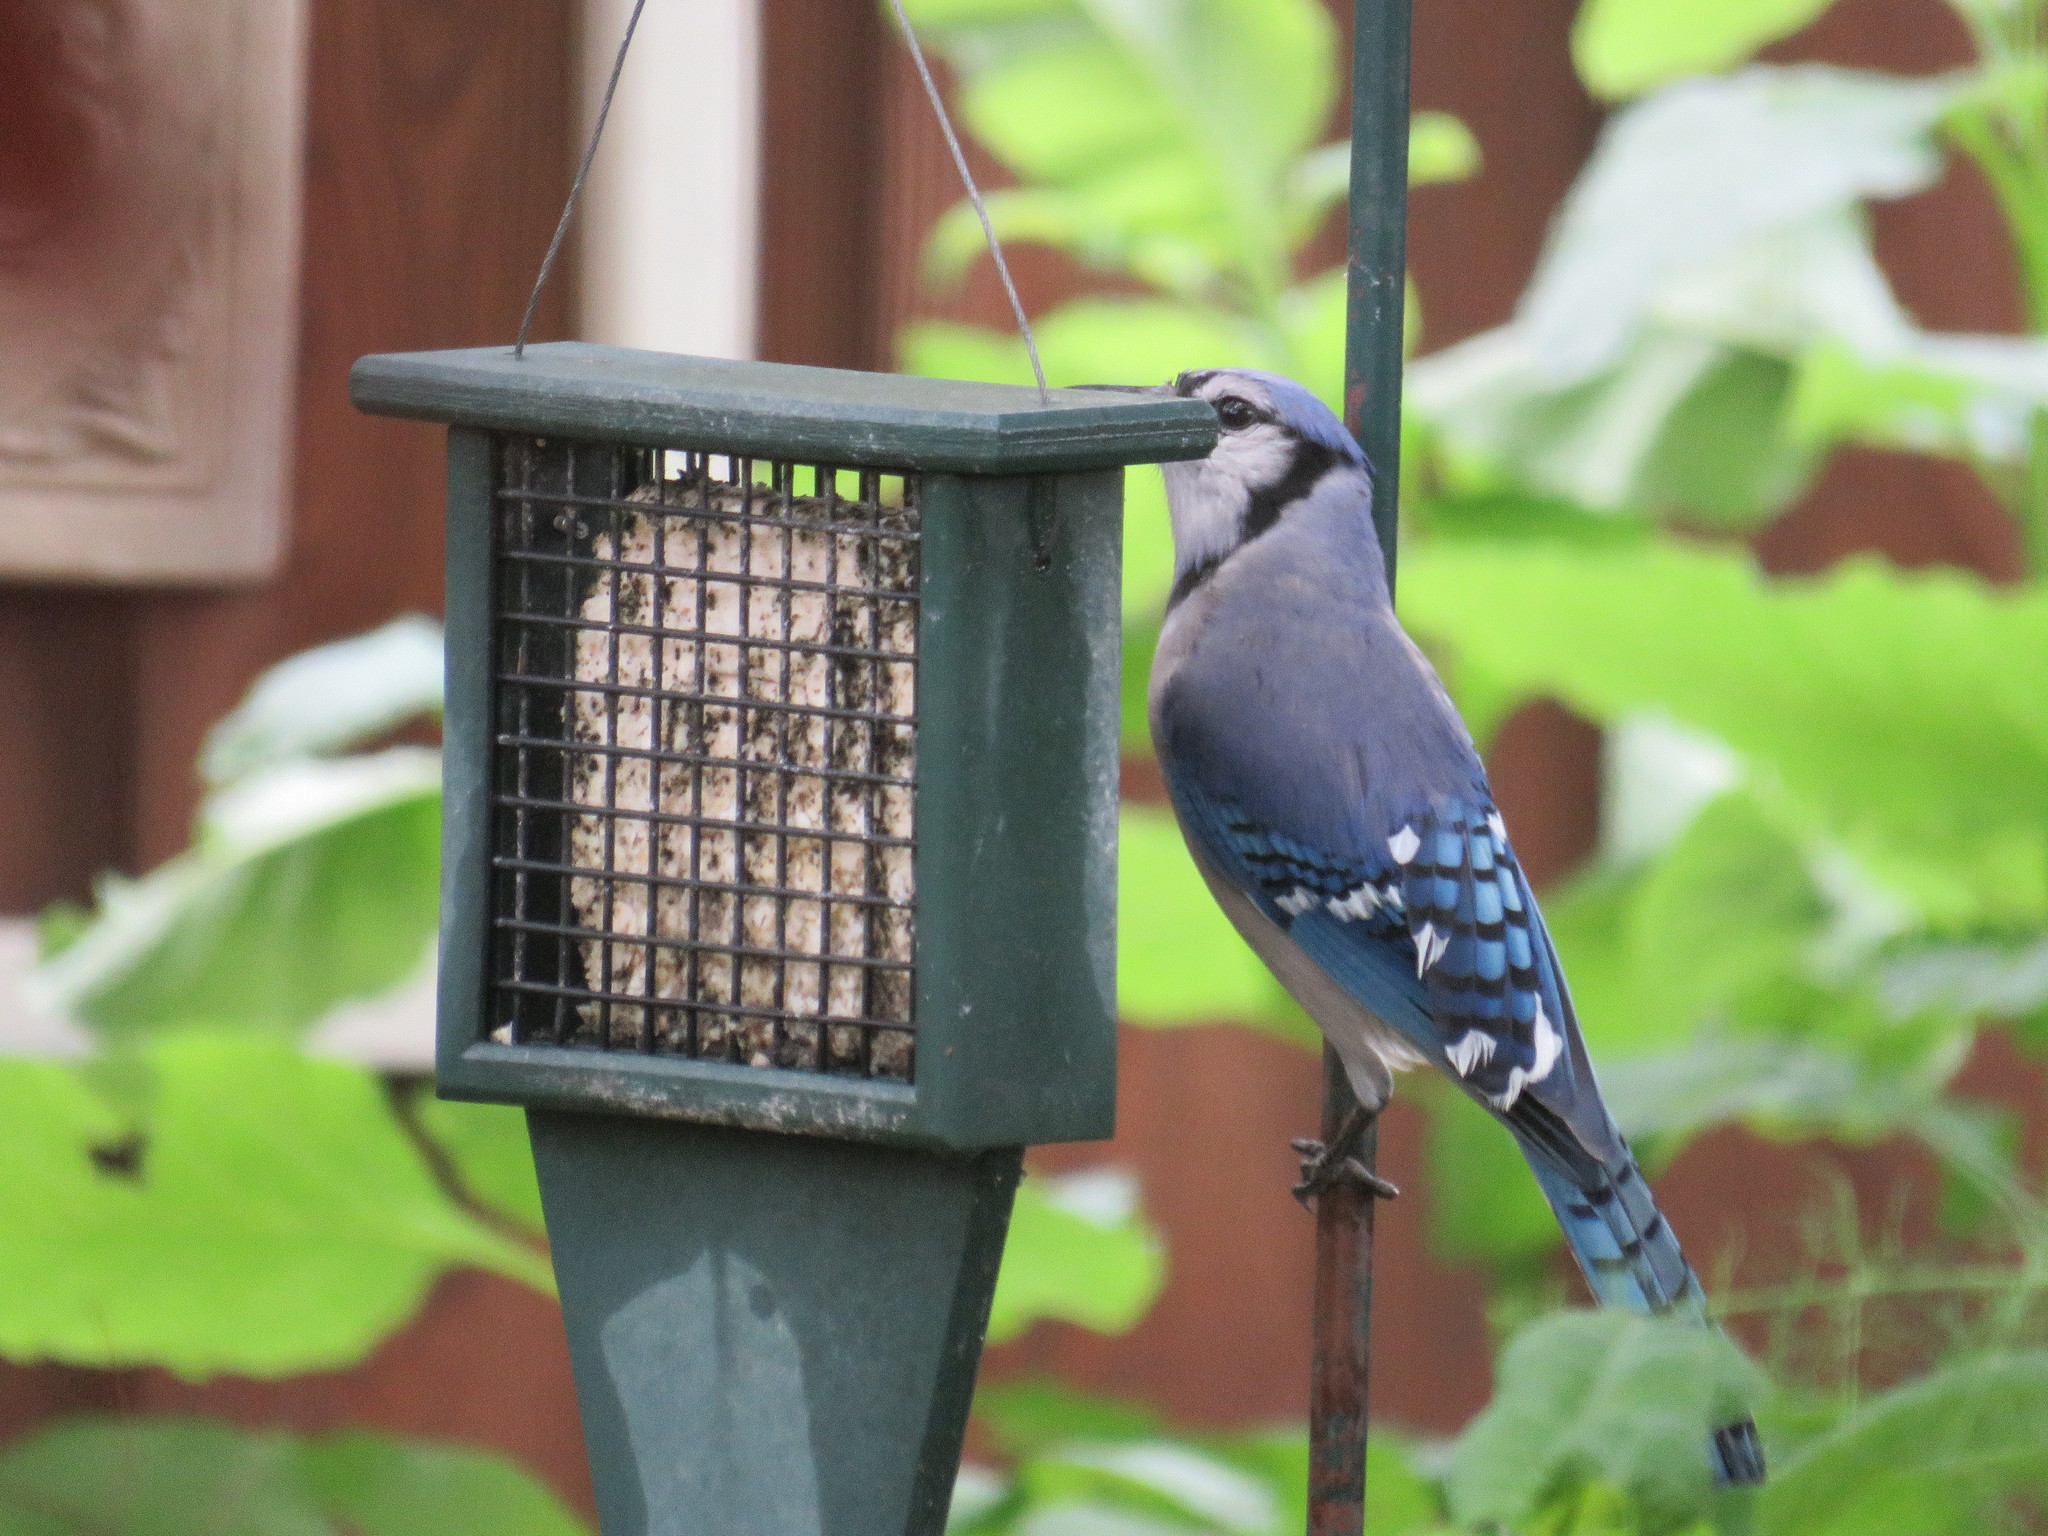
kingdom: Animalia
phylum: Chordata
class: Aves
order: Passeriformes
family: Corvidae
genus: Cyanocitta
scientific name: Cyanocitta cristata
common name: Blue jay
